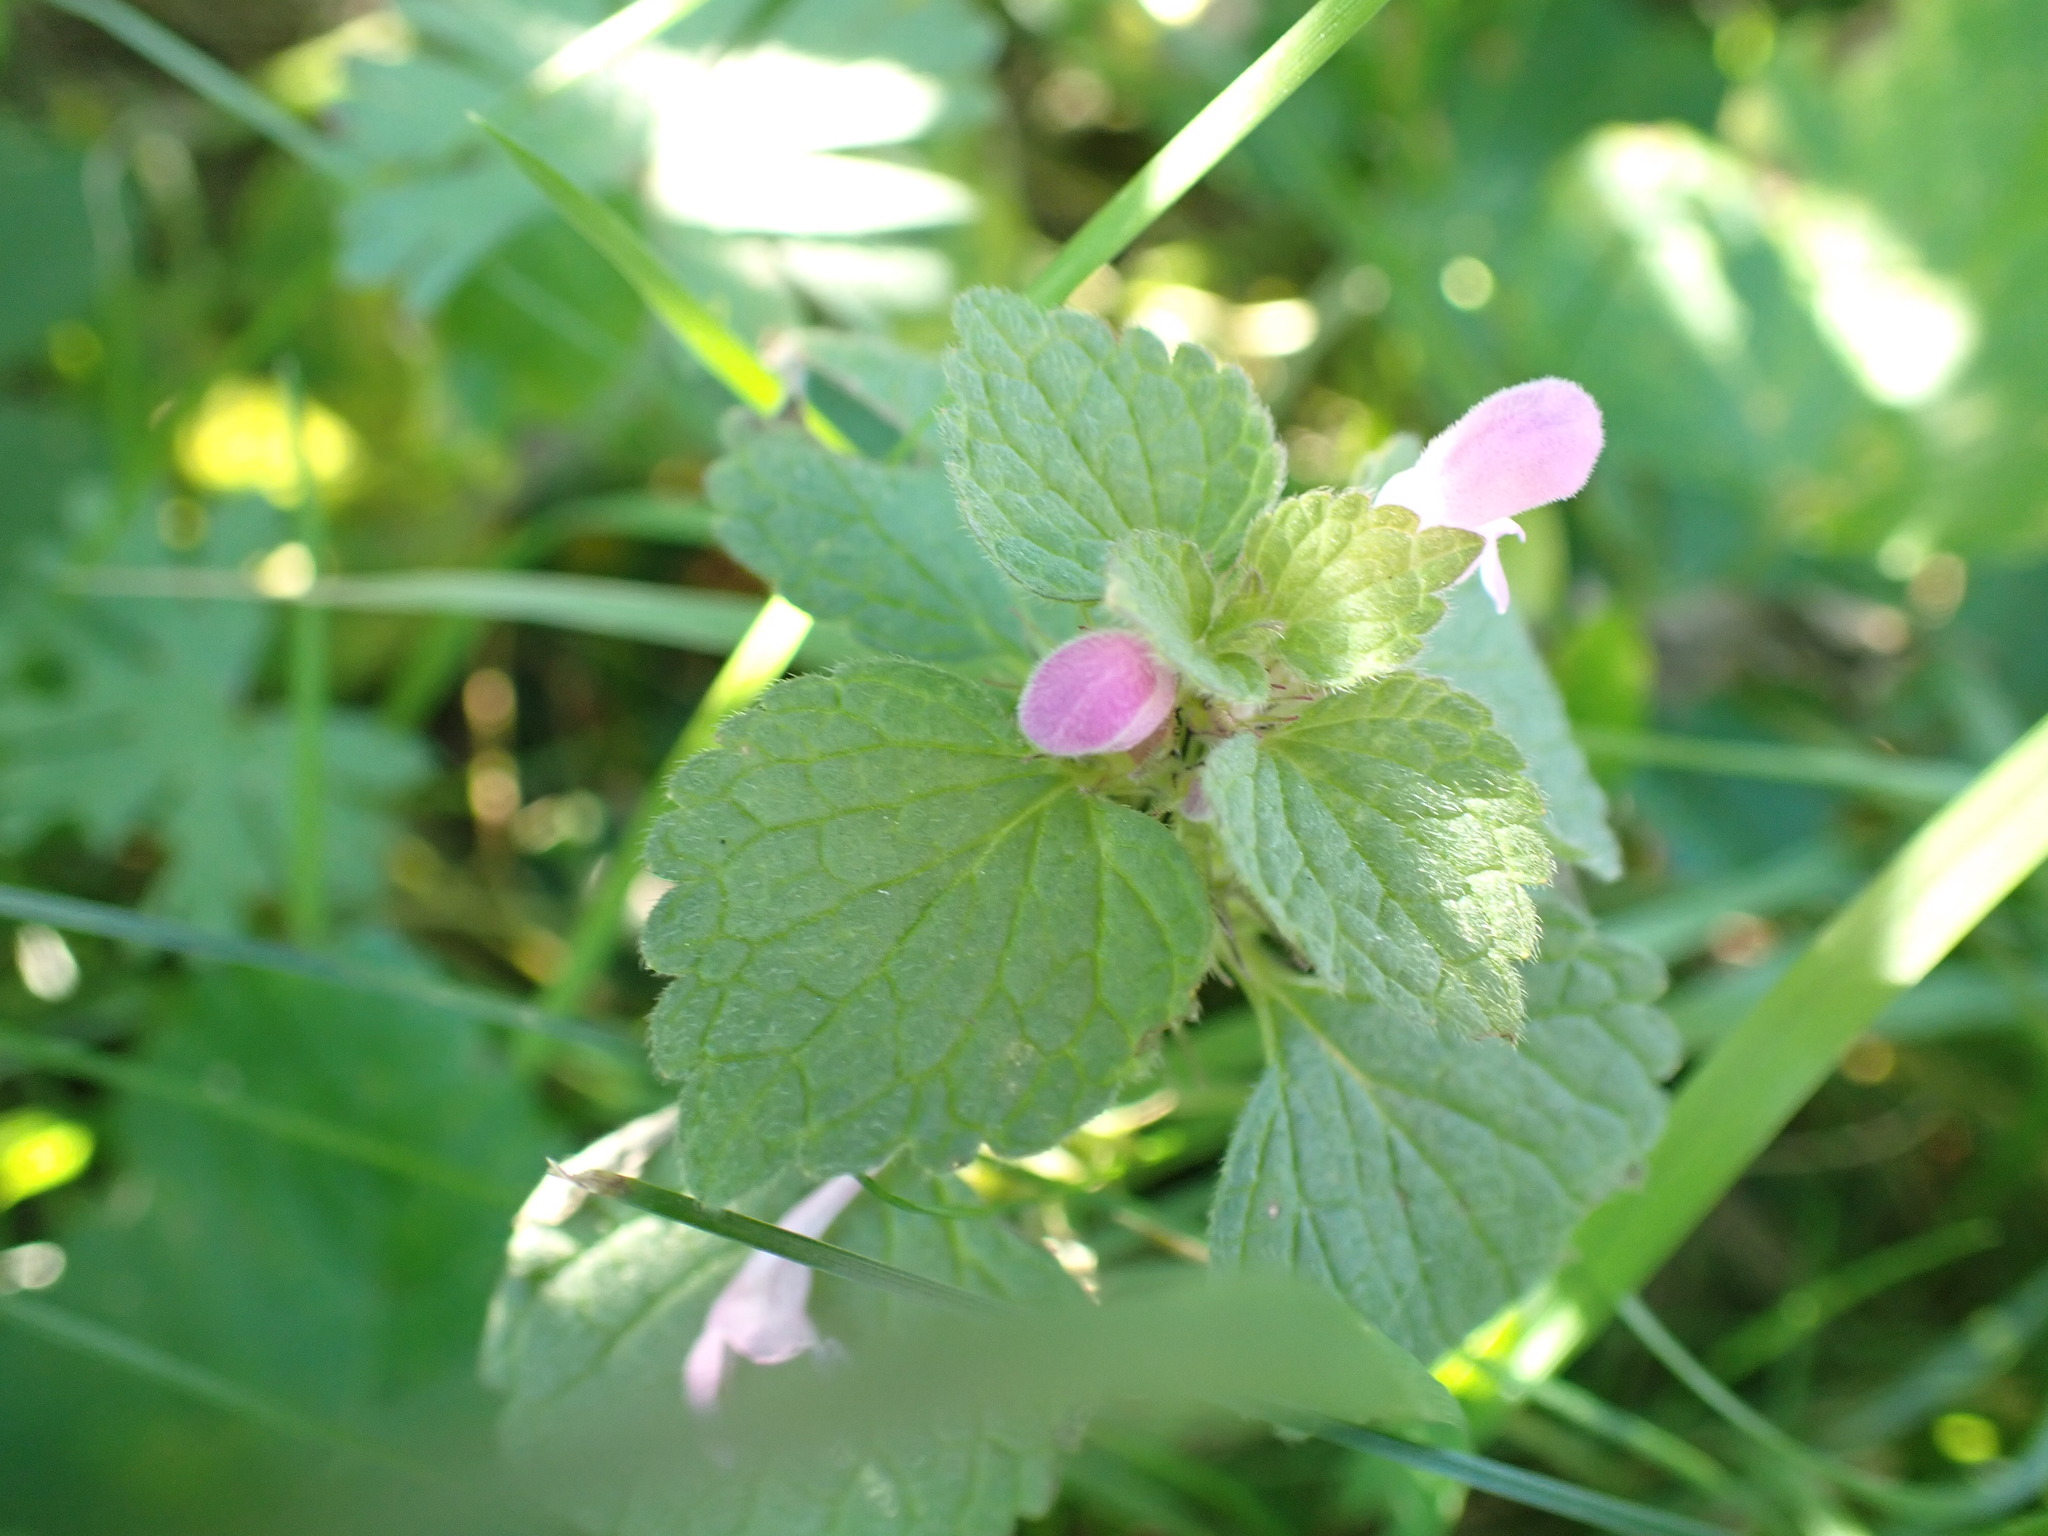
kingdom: Plantae
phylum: Tracheophyta
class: Magnoliopsida
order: Lamiales
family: Lamiaceae
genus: Lamium
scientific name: Lamium purpureum
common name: Red dead-nettle
